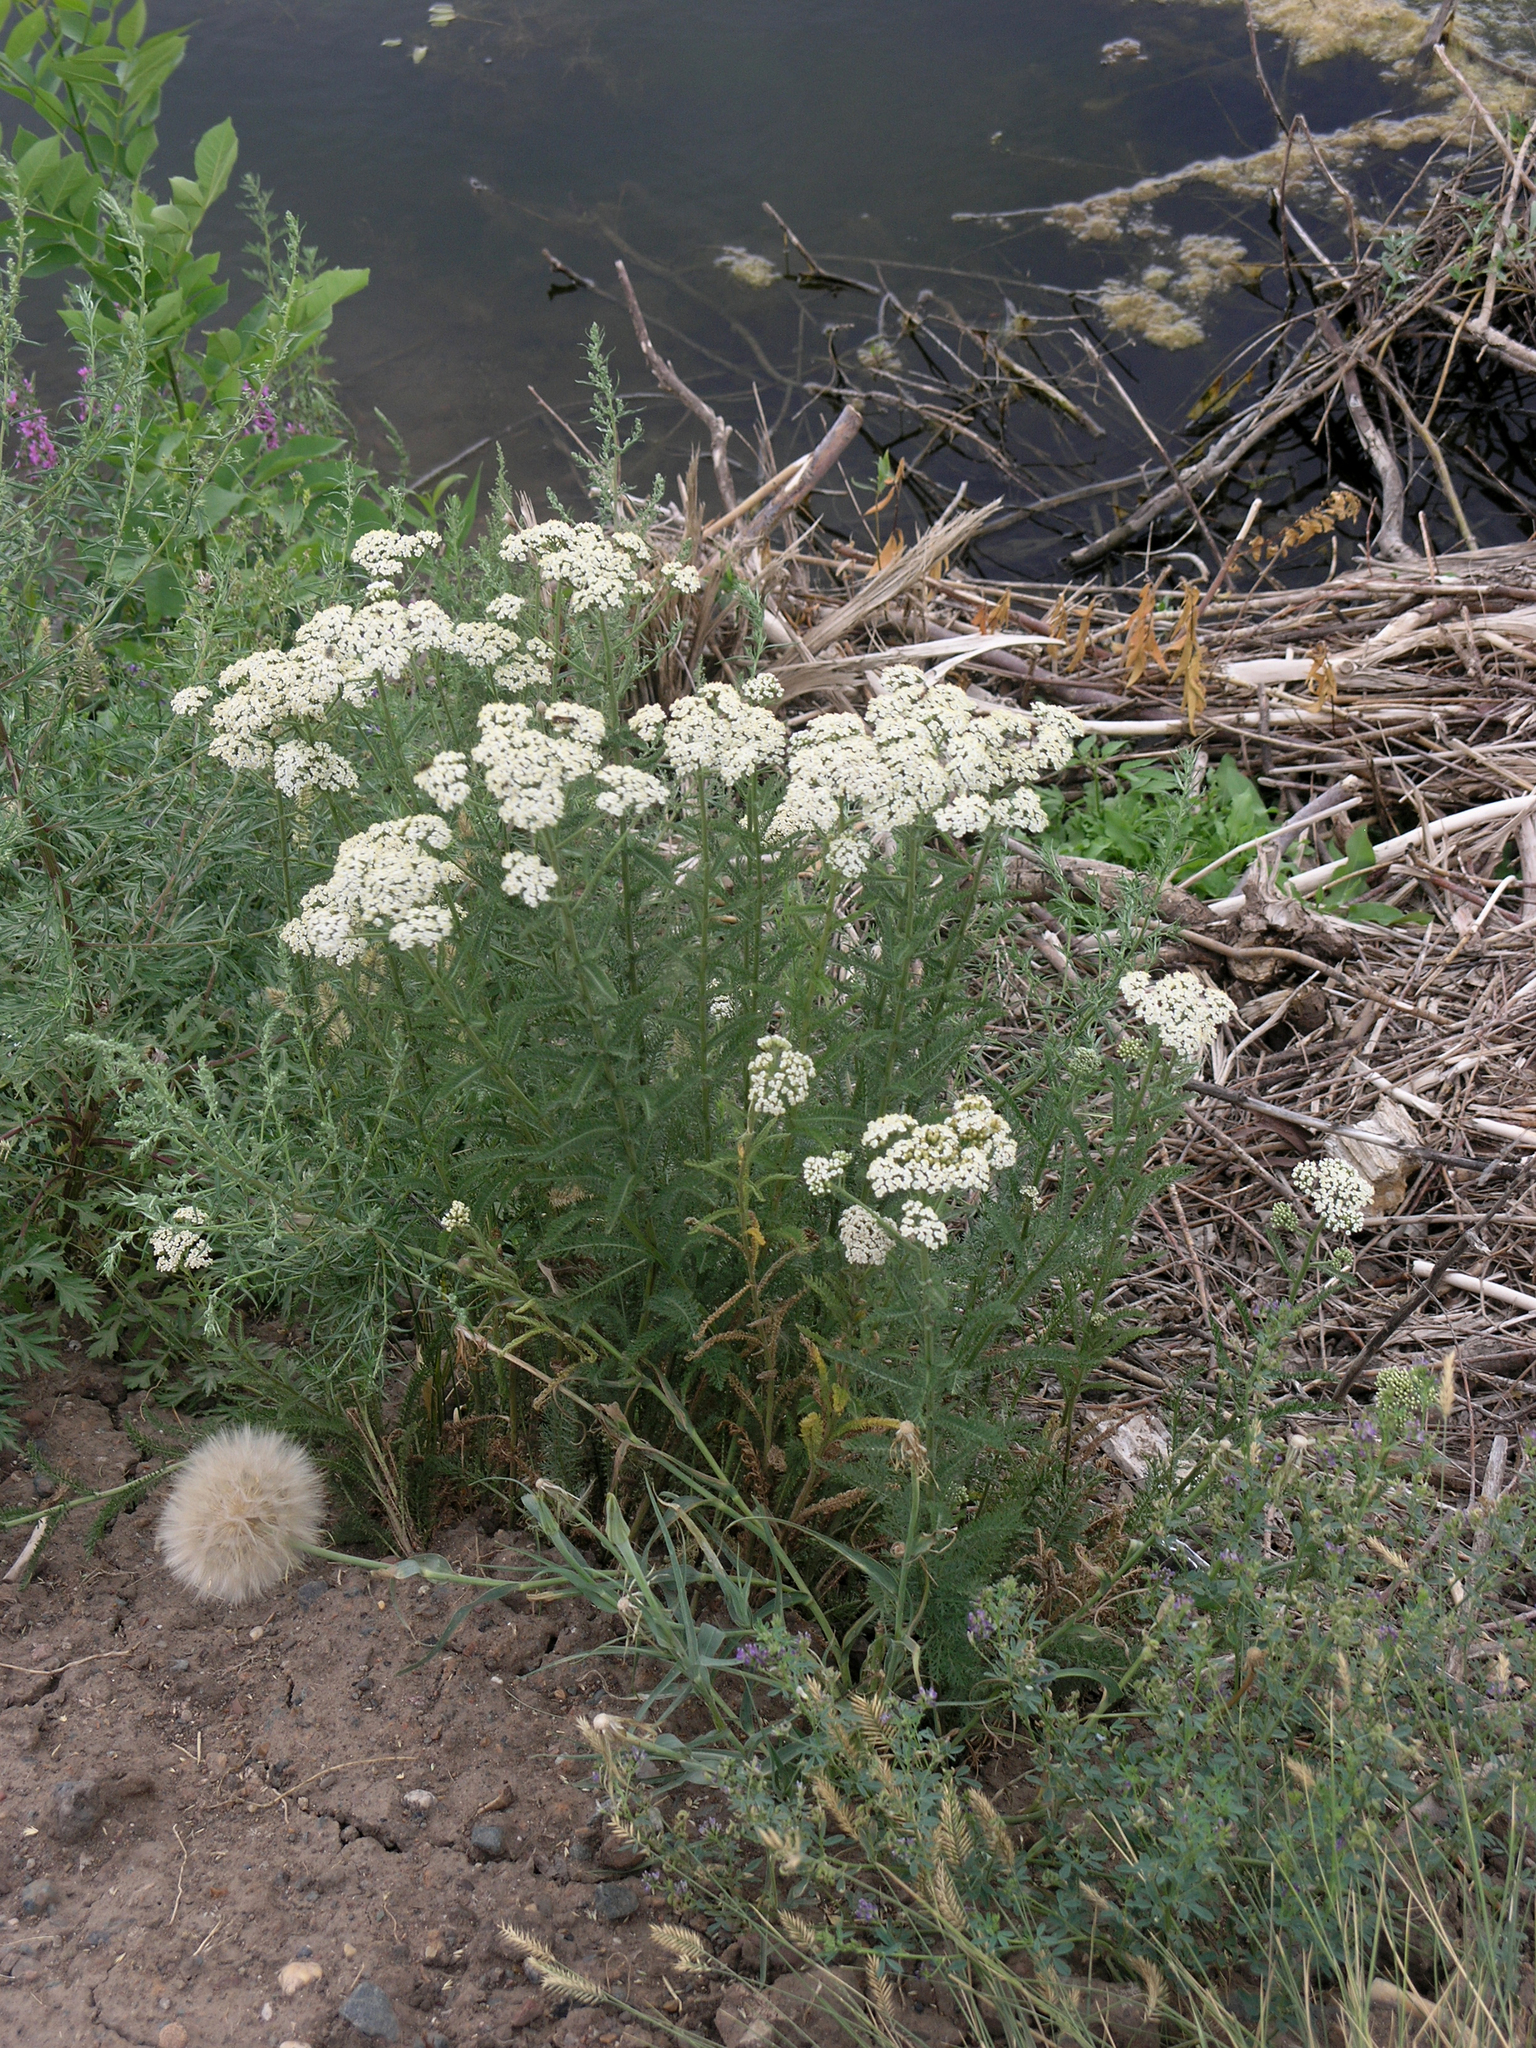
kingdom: Plantae
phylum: Tracheophyta
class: Magnoliopsida
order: Asterales
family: Asteraceae
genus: Achillea
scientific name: Achillea millefolium
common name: Yarrow
